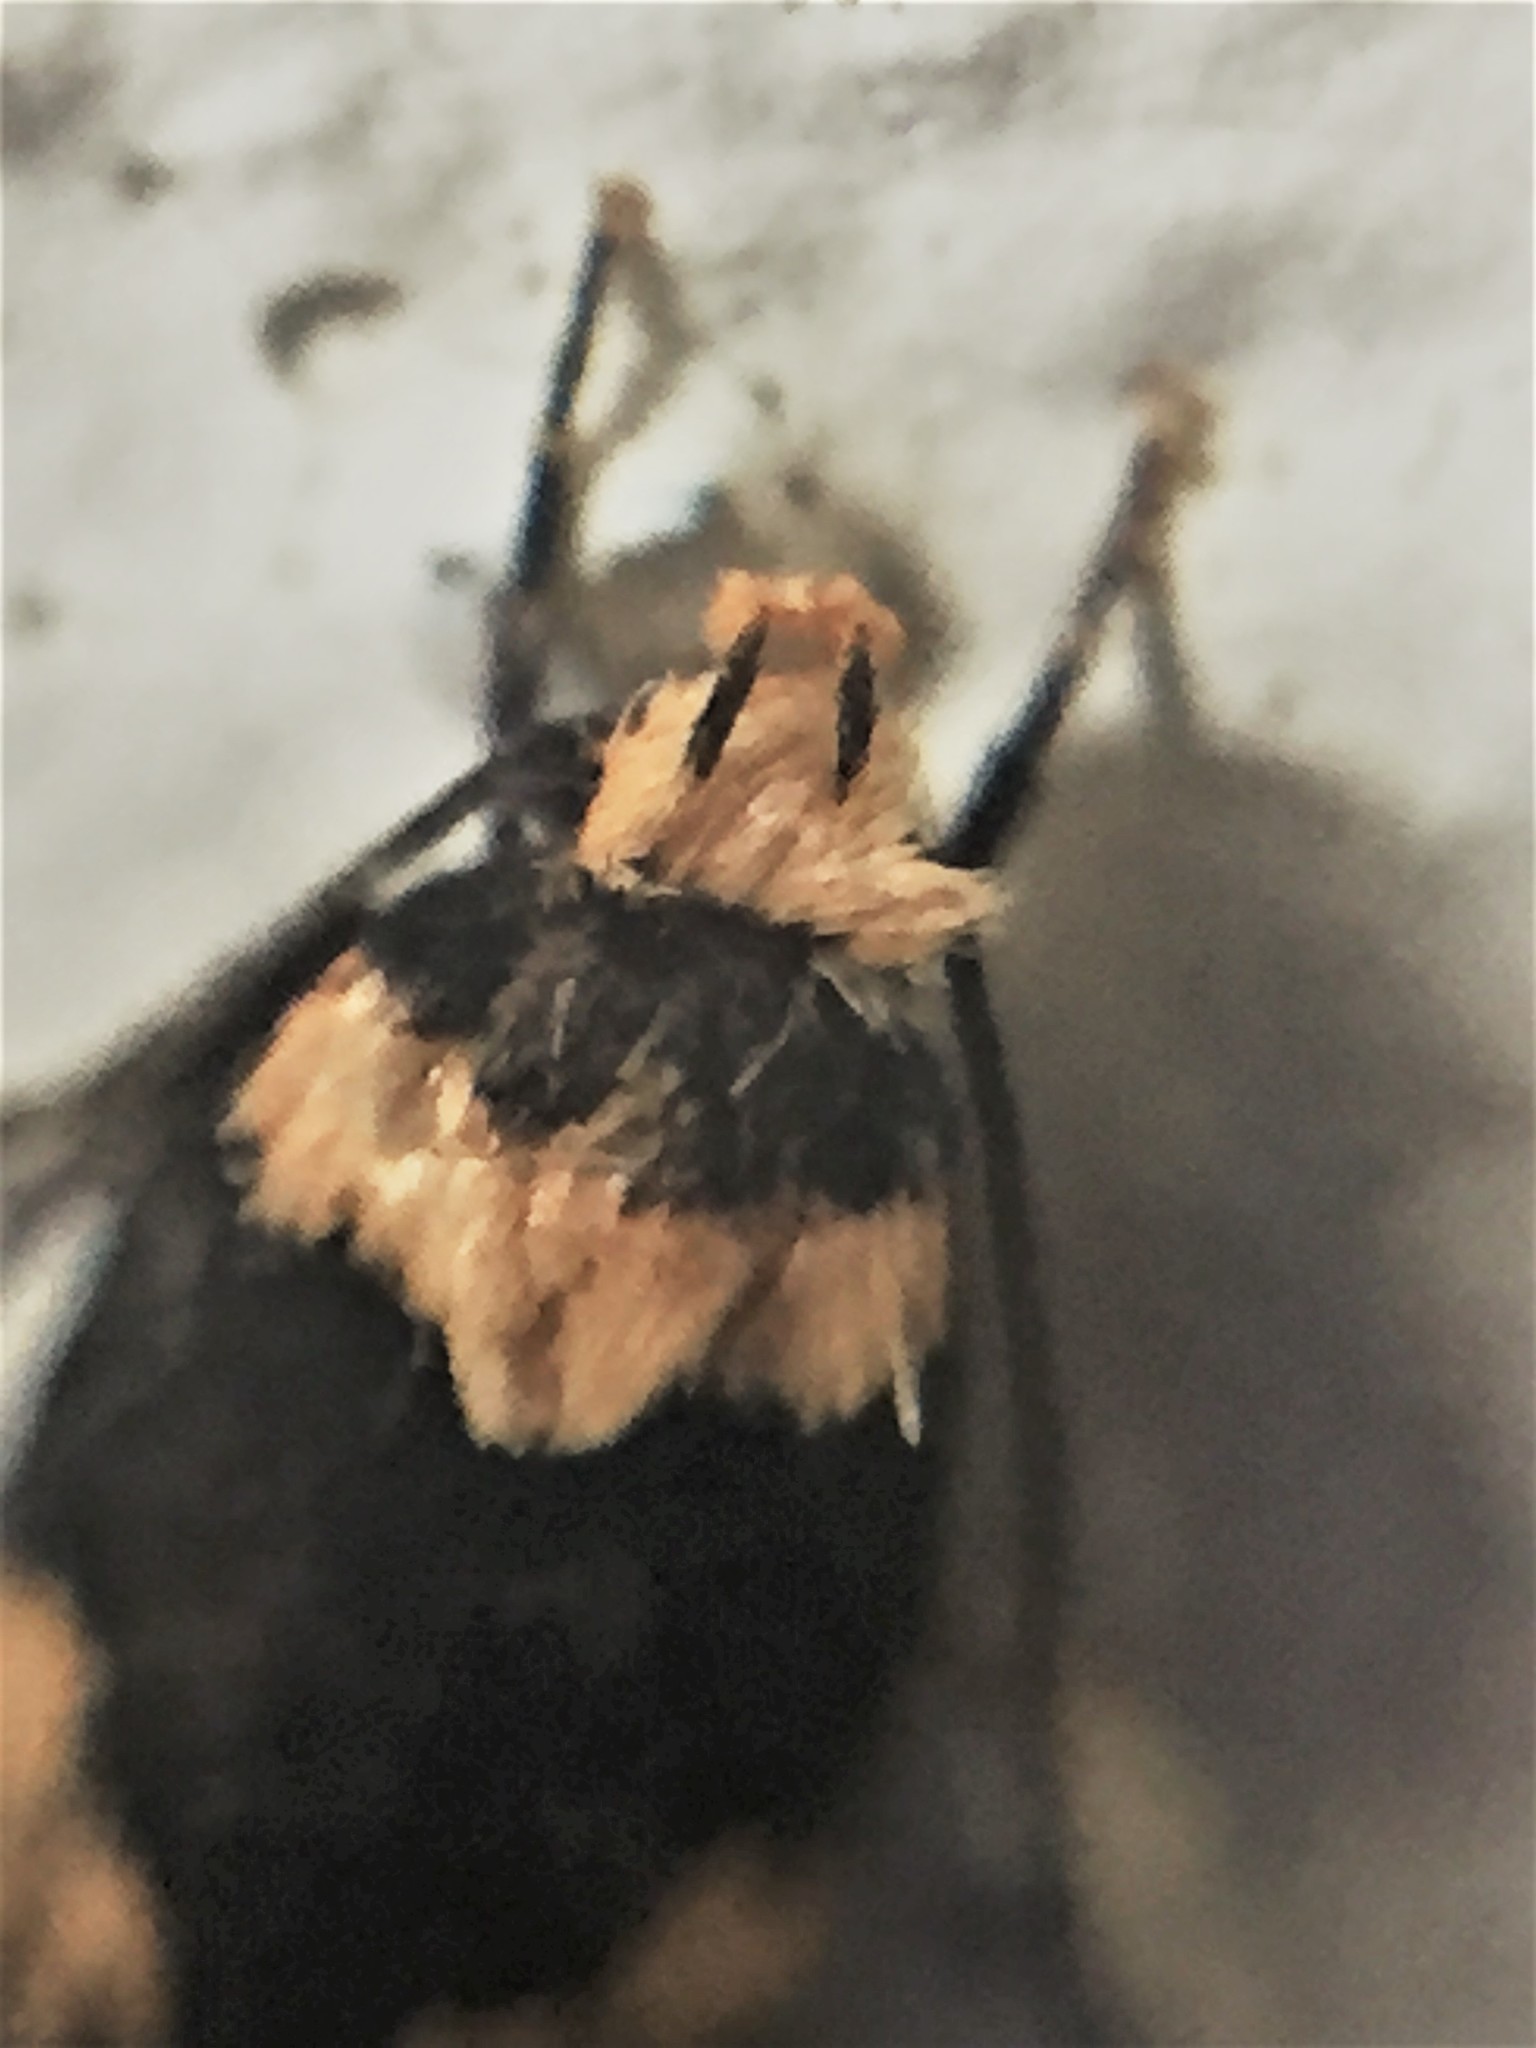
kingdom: Animalia
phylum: Arthropoda
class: Insecta
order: Lepidoptera
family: Oecophoridae
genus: Sphyrelata
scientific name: Sphyrelata amotella
